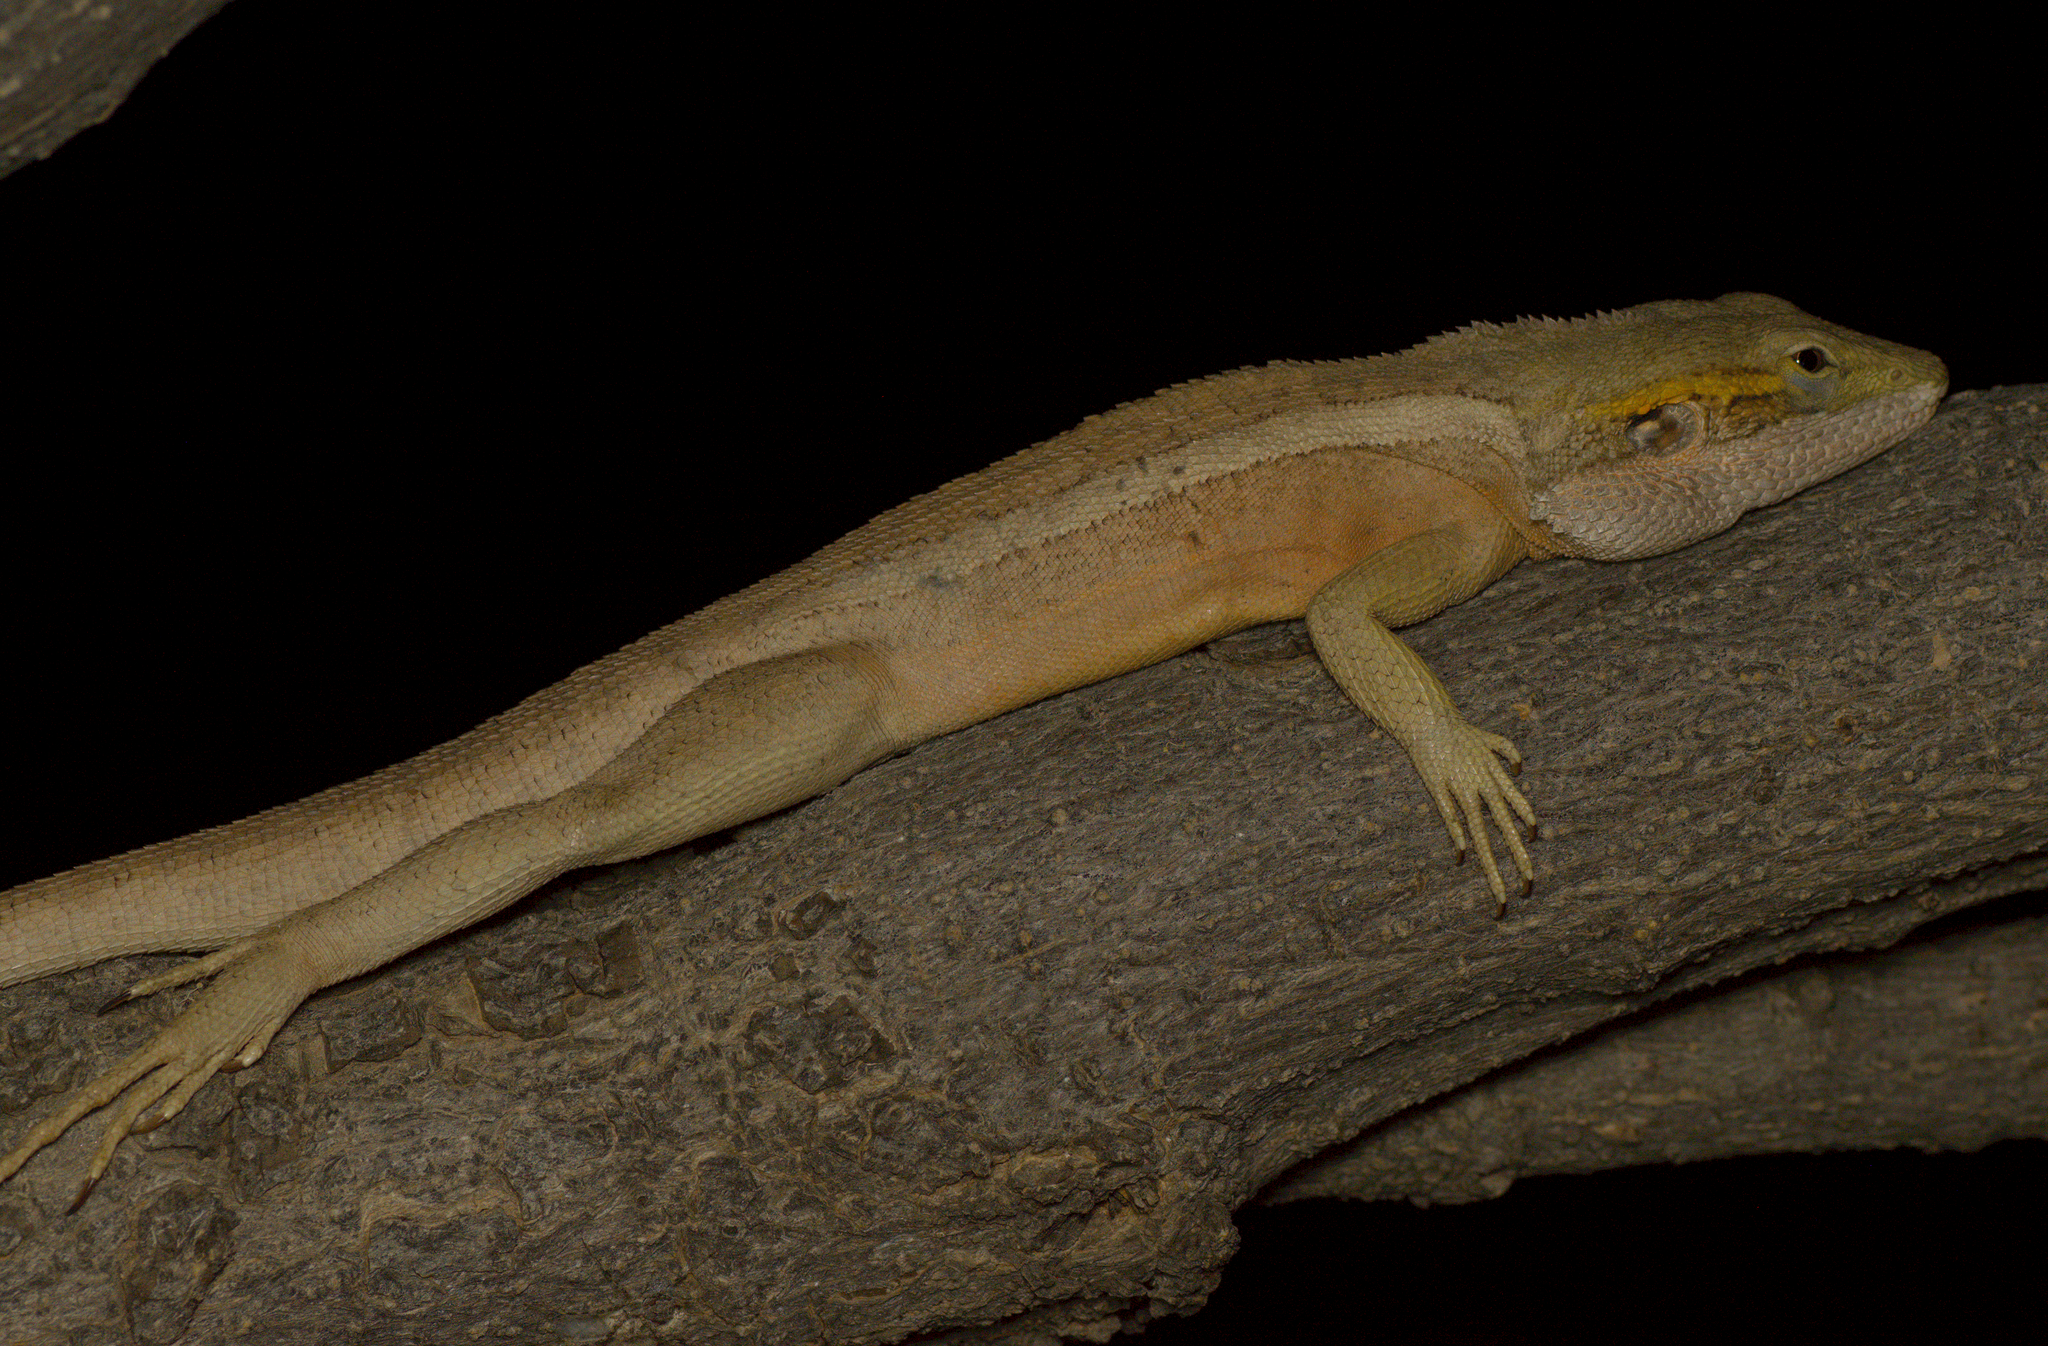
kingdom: Animalia
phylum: Chordata
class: Squamata
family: Agamidae
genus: Amphibolurus
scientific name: Amphibolurus centralis
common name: Centralian lashtail
